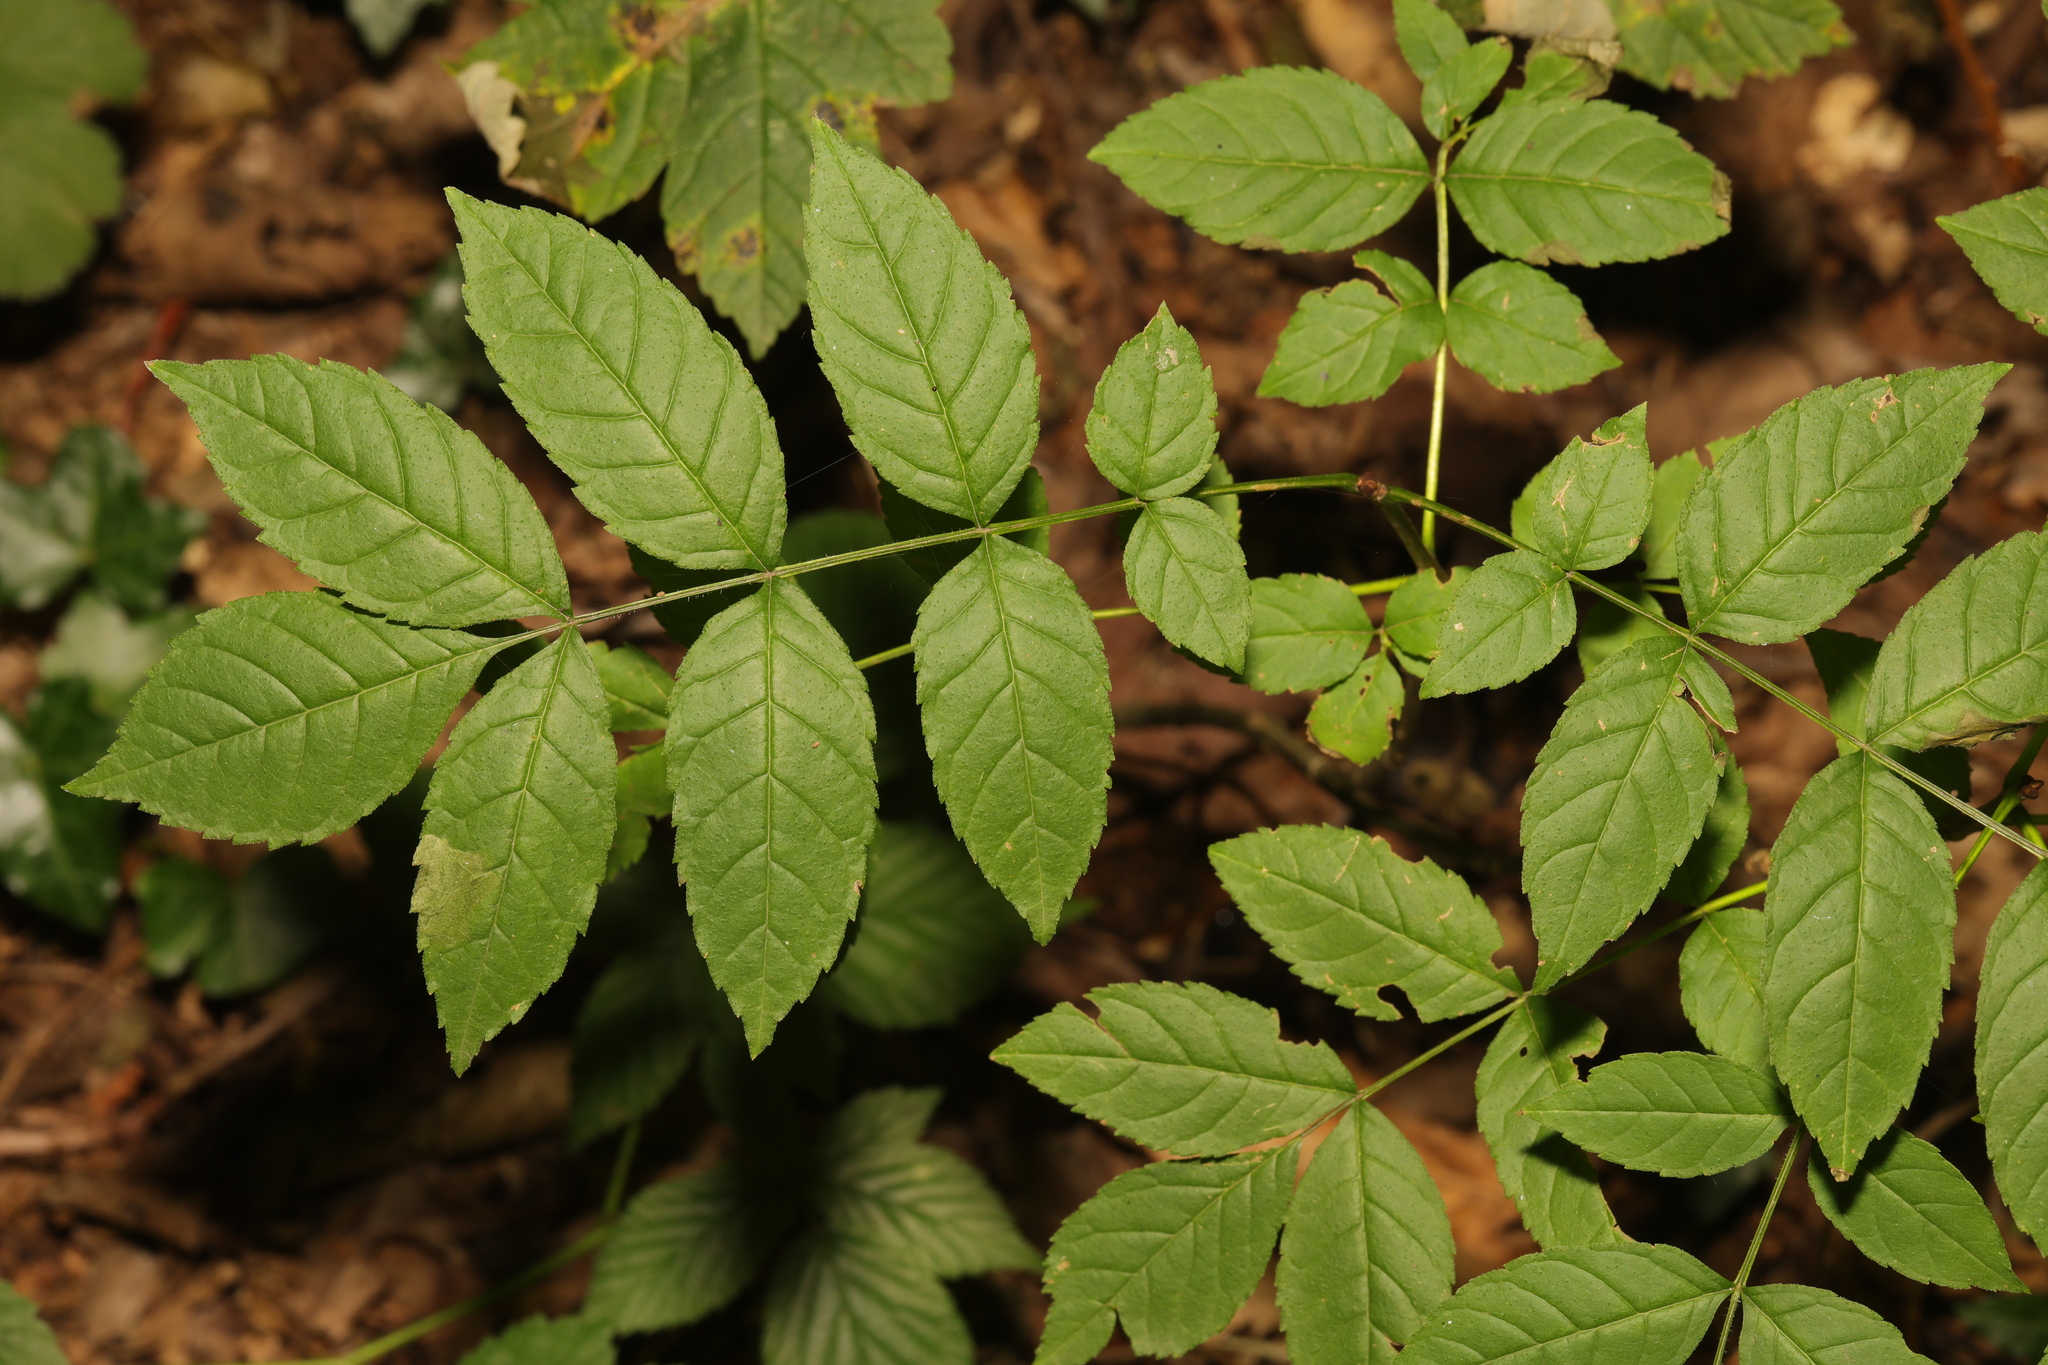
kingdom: Plantae
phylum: Tracheophyta
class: Magnoliopsida
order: Lamiales
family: Oleaceae
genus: Fraxinus
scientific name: Fraxinus excelsior
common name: European ash
